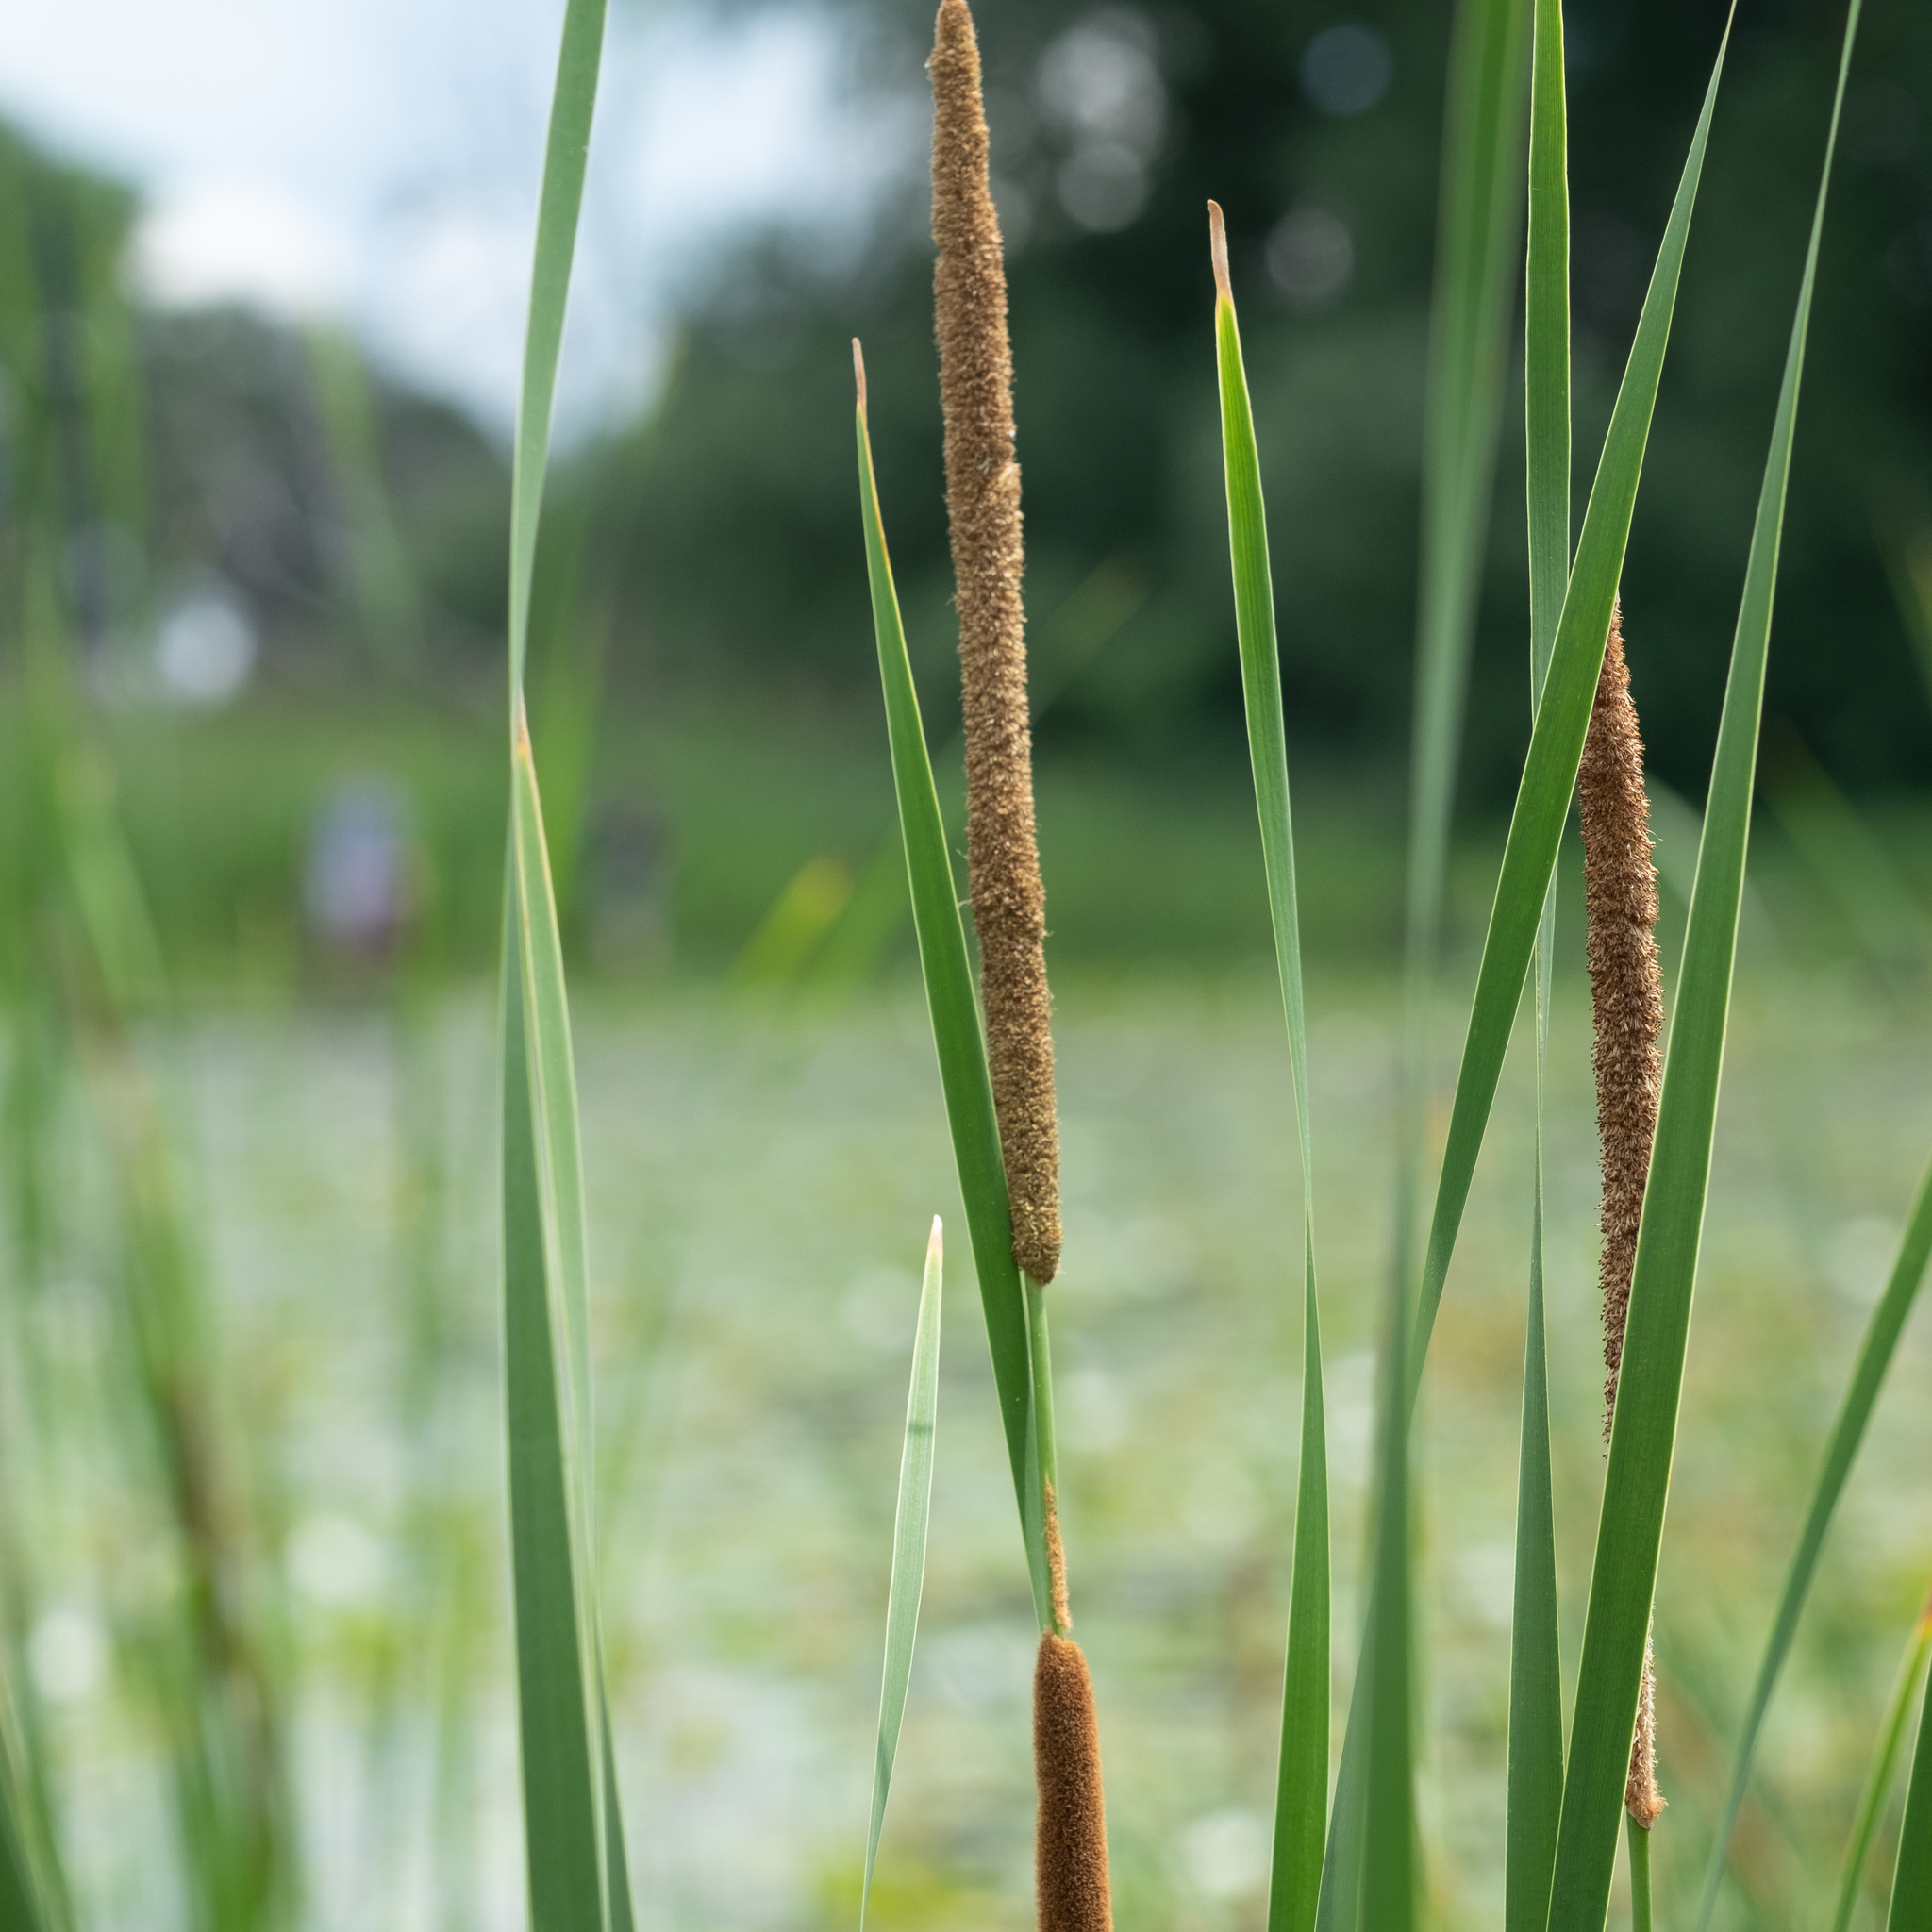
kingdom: Plantae
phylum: Tracheophyta
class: Liliopsida
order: Poales
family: Typhaceae
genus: Typha
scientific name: Typha angustifolia
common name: Lesser bulrush
